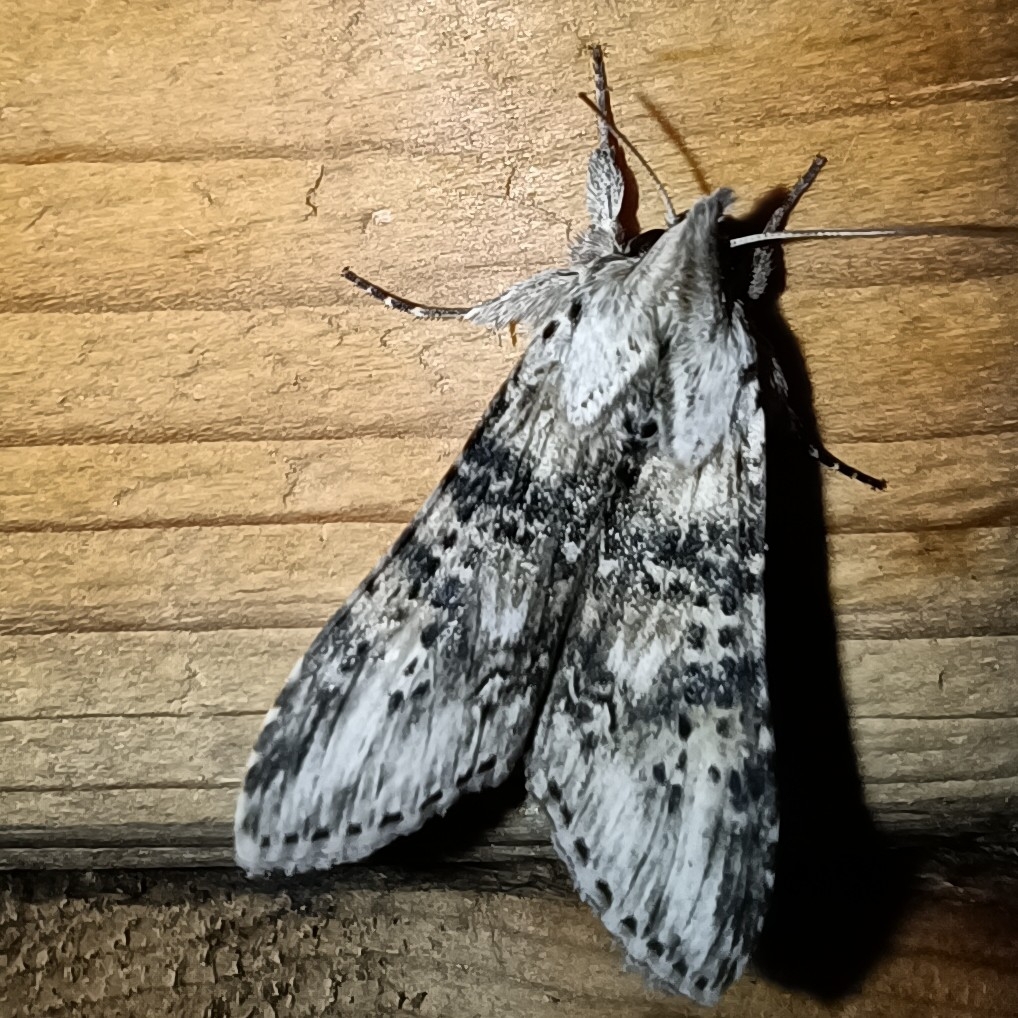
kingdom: Animalia
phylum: Arthropoda
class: Insecta
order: Lepidoptera
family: Noctuidae
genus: Cucullia
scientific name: Cucullia absinthii
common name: Wormwood
